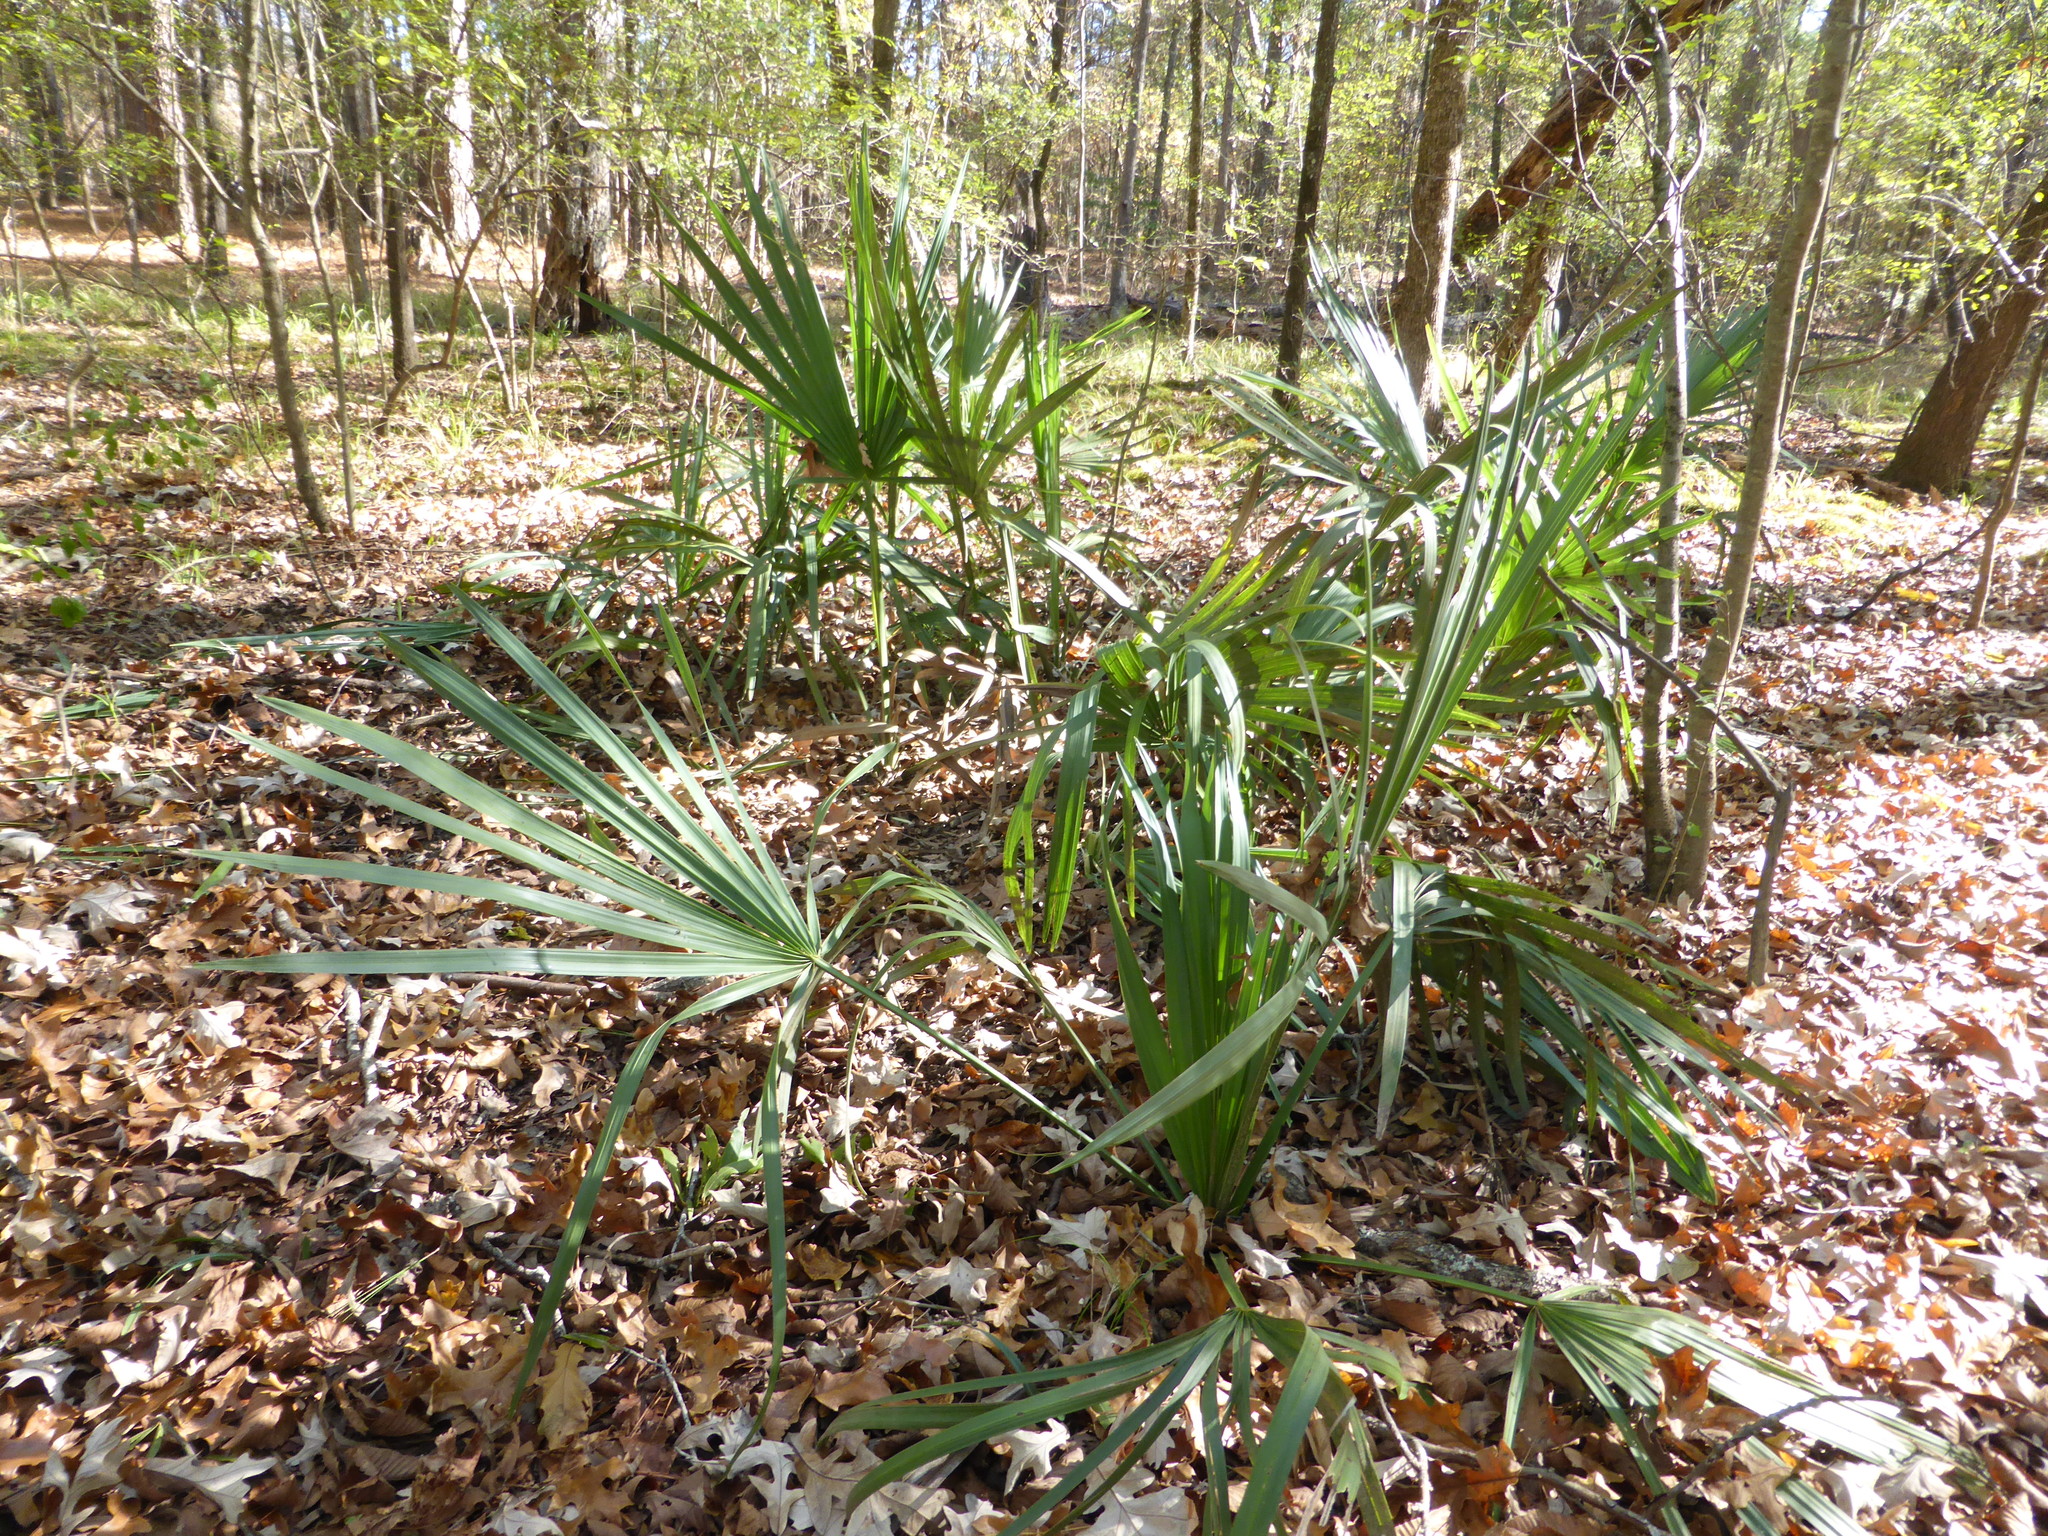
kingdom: Plantae
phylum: Tracheophyta
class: Liliopsida
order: Arecales
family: Arecaceae
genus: Sabal
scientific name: Sabal minor
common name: Dwarf palmetto
